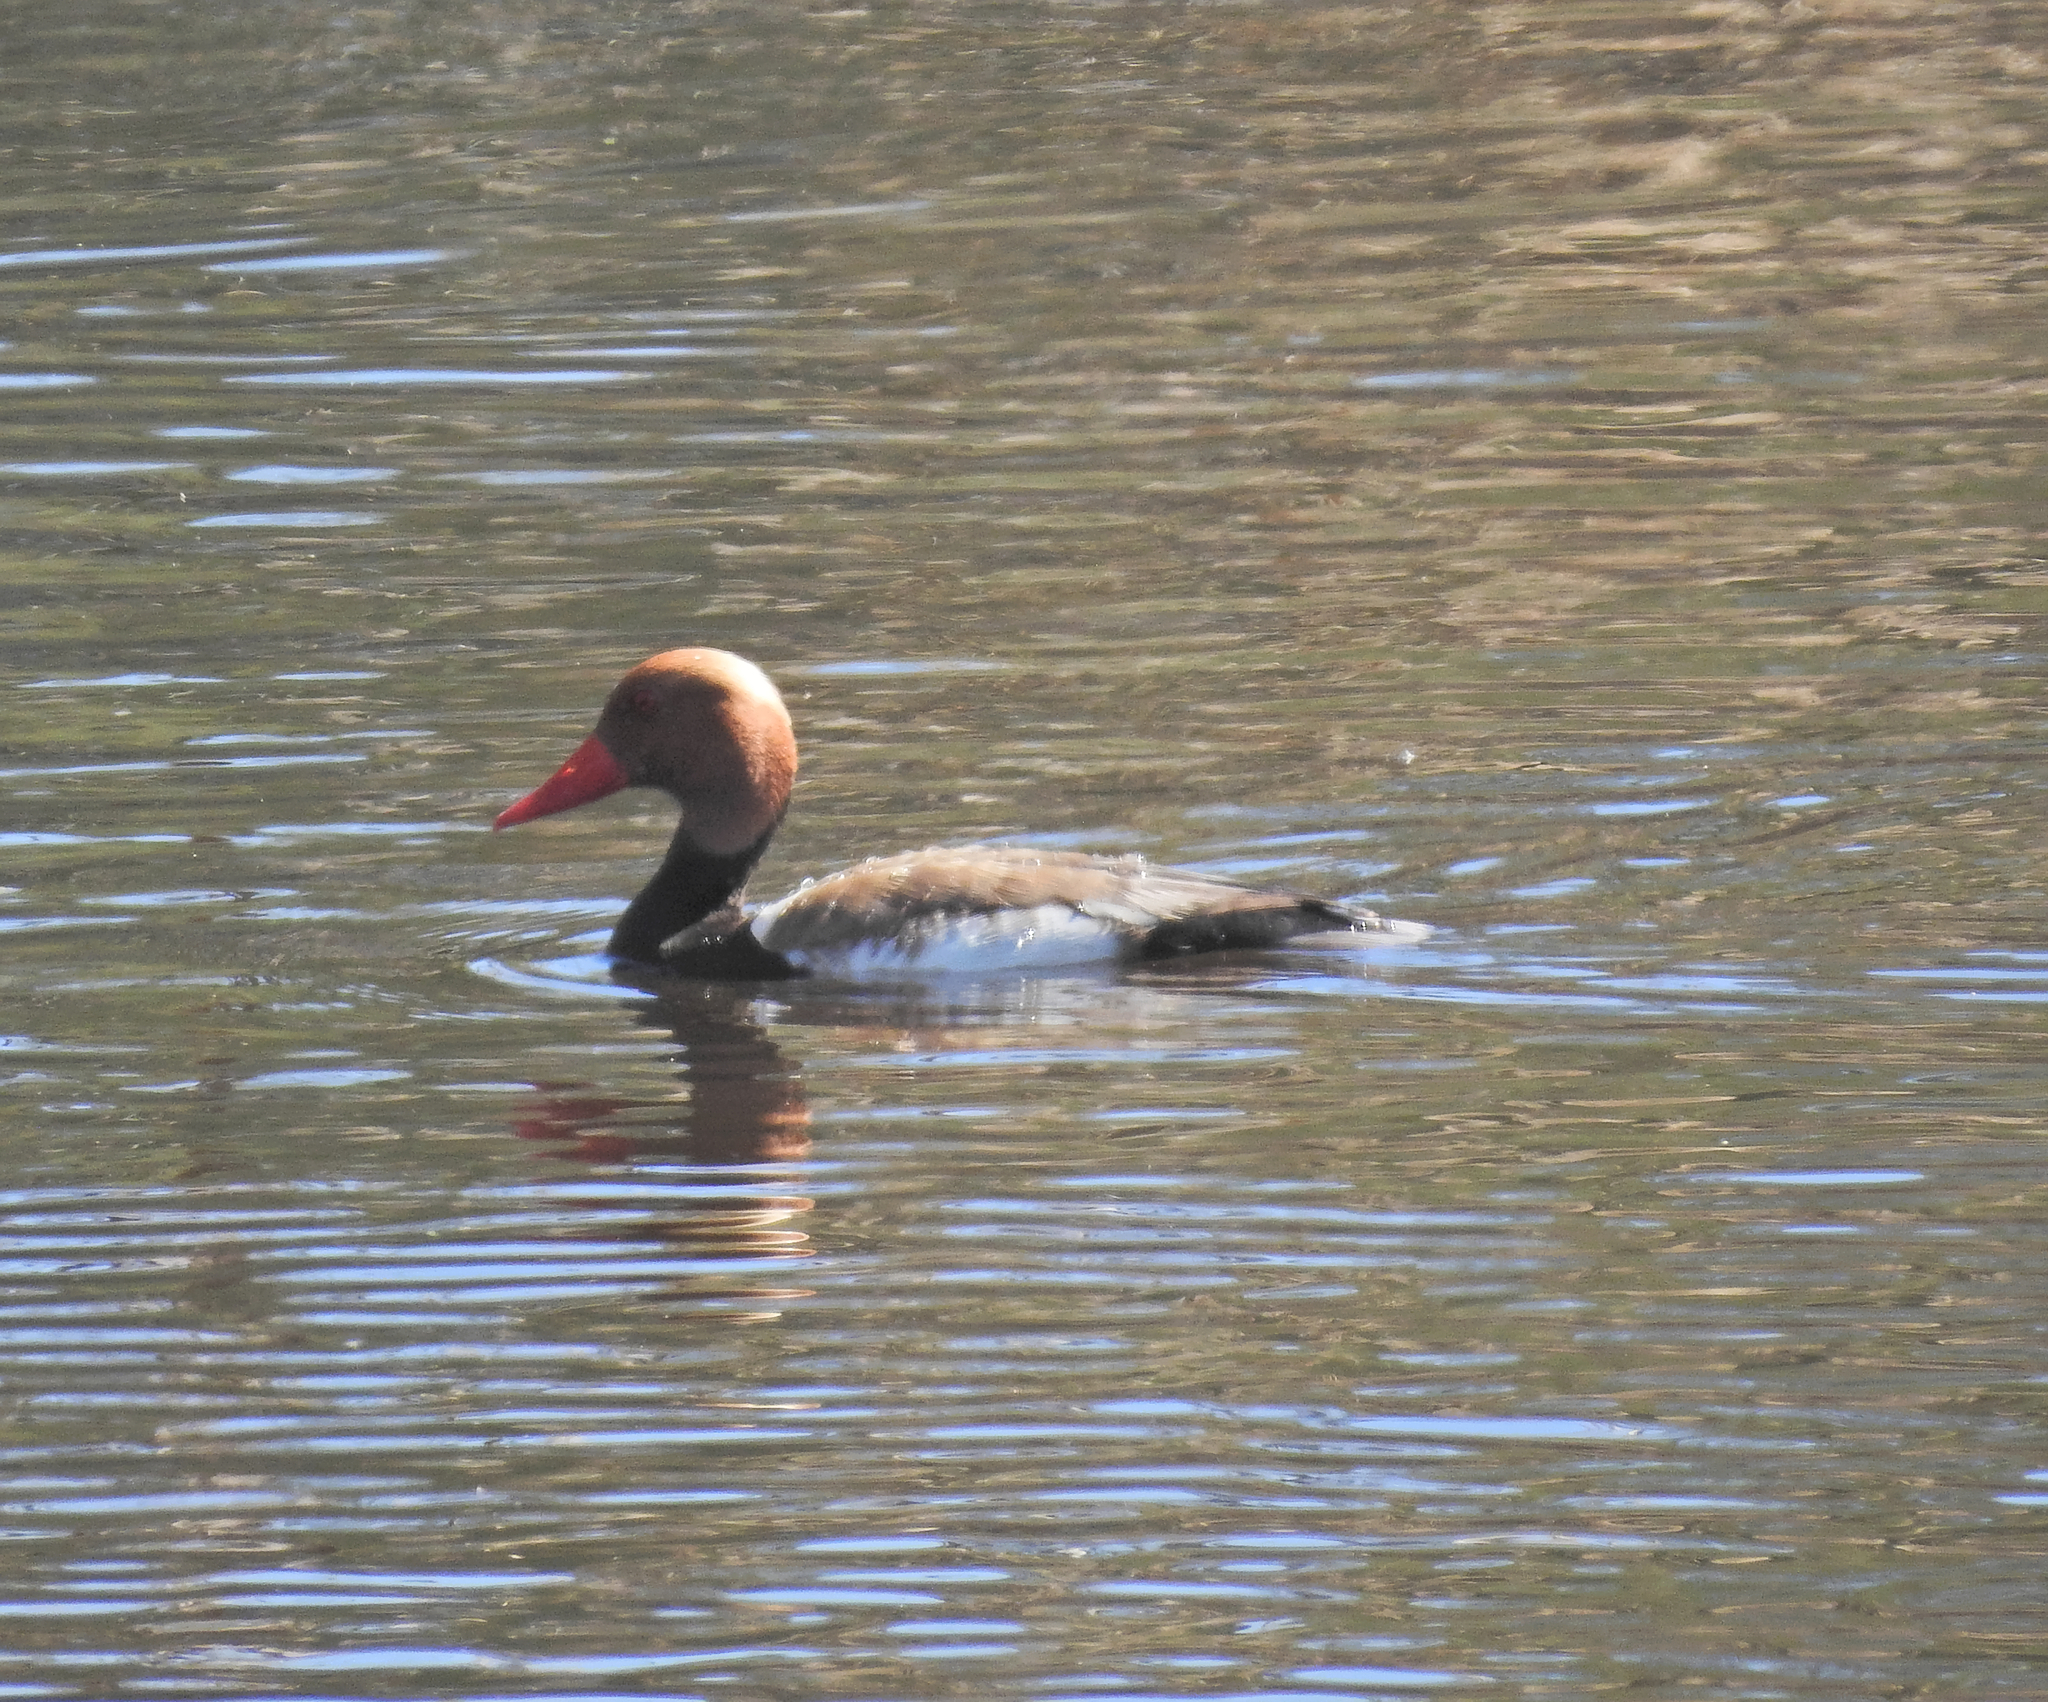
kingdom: Animalia
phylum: Chordata
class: Aves
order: Anseriformes
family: Anatidae
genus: Netta
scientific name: Netta rufina
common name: Red-crested pochard
